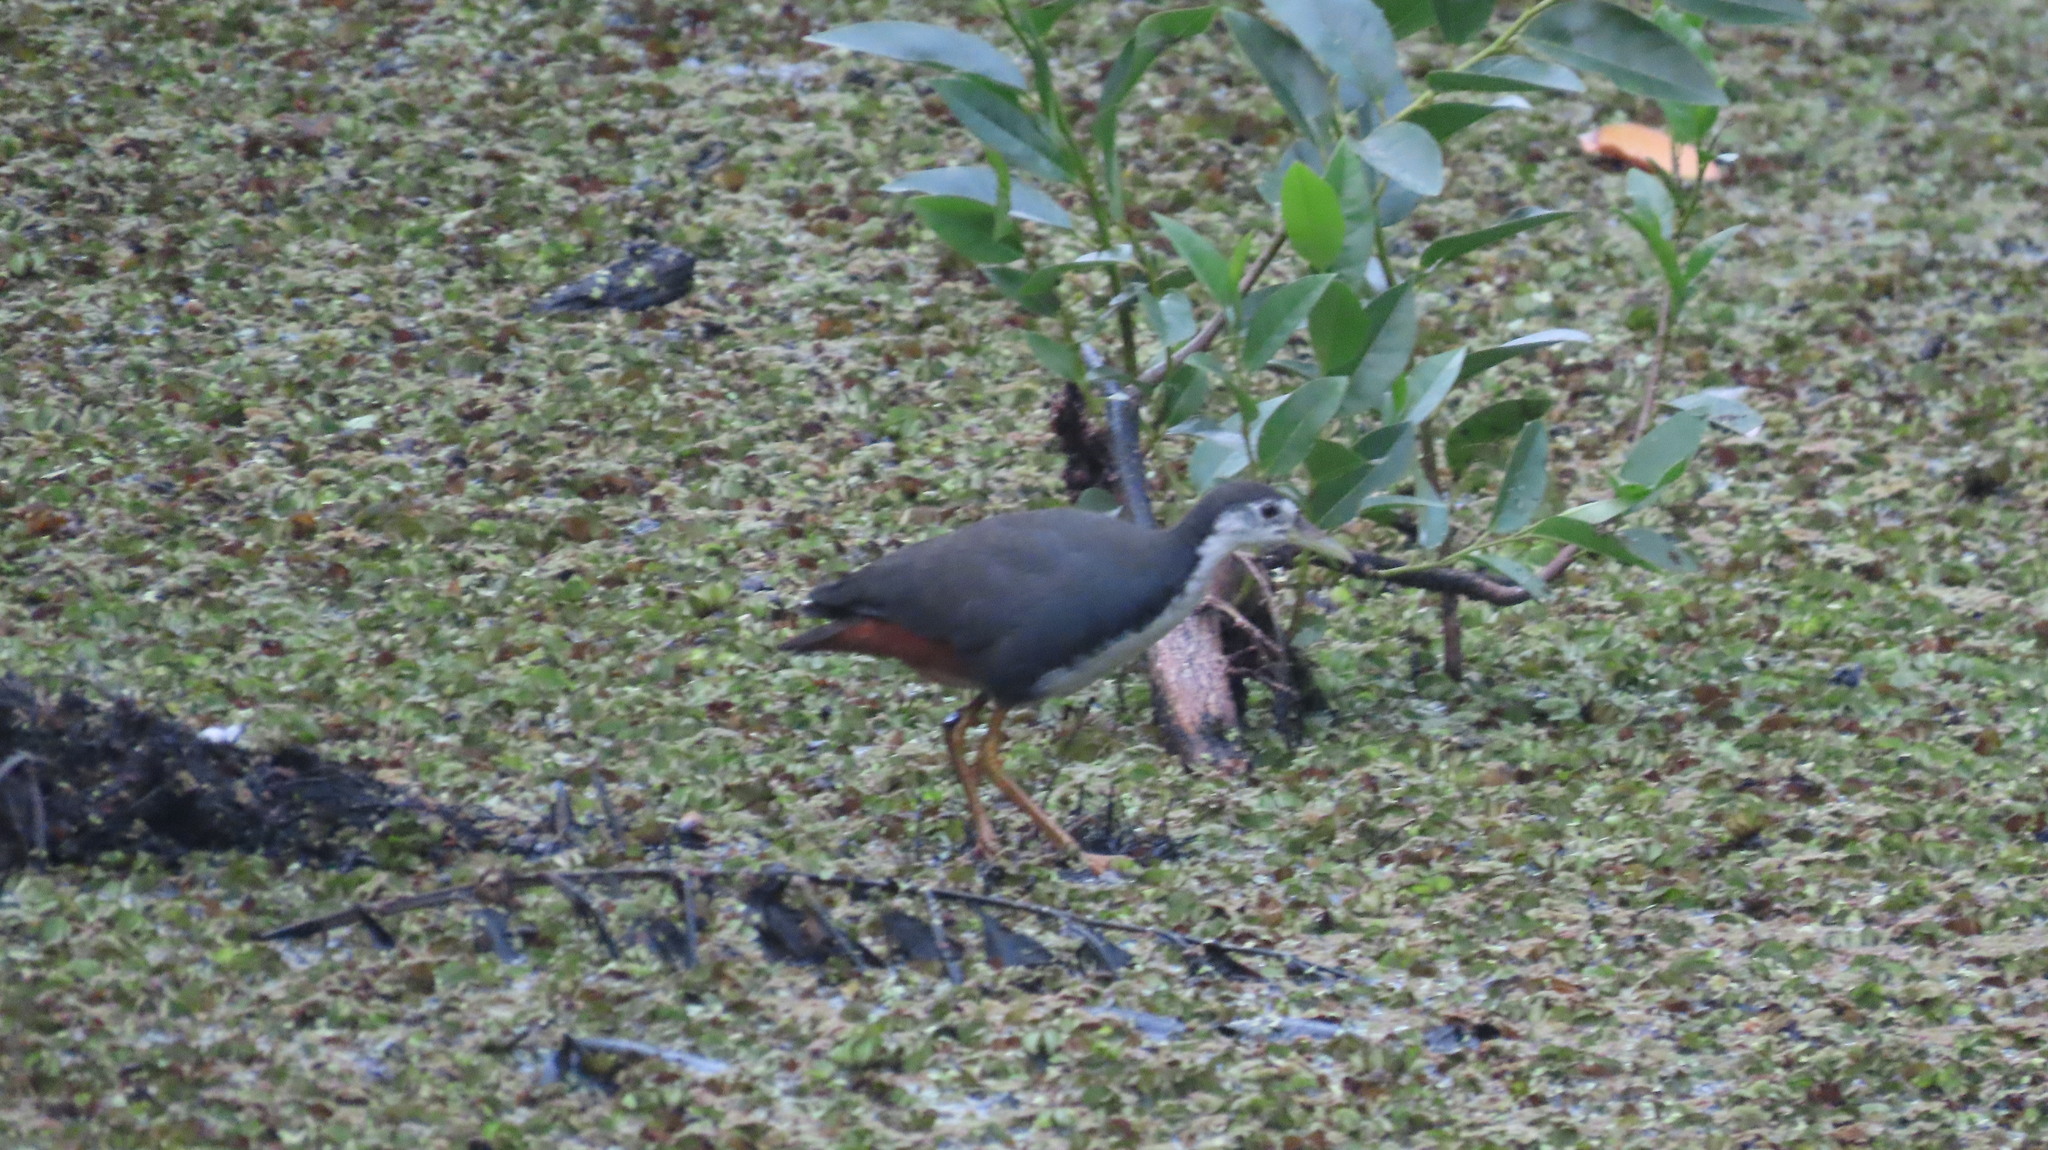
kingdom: Animalia
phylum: Chordata
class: Aves
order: Gruiformes
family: Rallidae
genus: Amaurornis
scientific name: Amaurornis phoenicurus
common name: White-breasted waterhen
